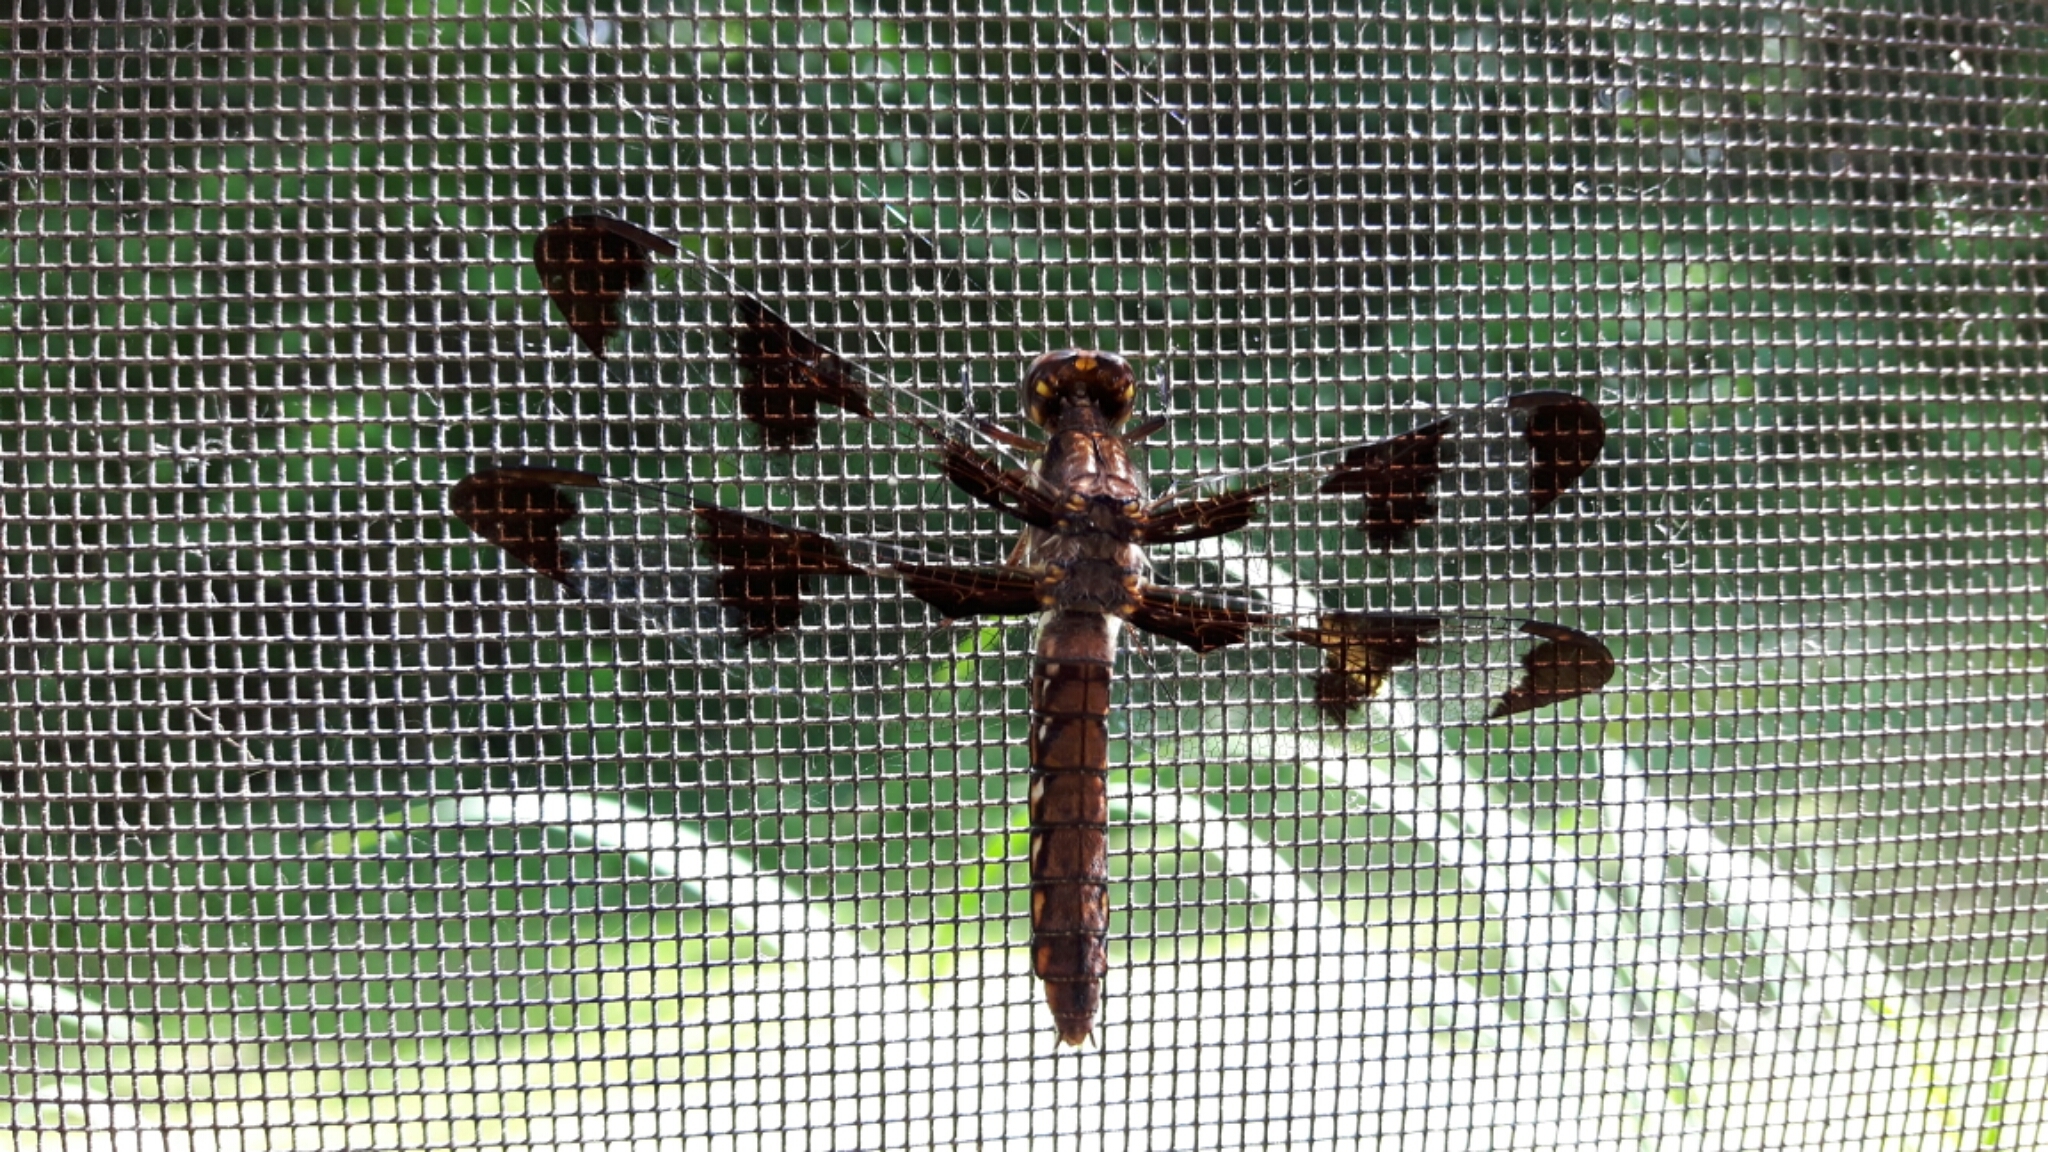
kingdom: Animalia
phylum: Arthropoda
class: Insecta
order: Odonata
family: Libellulidae
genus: Plathemis
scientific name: Plathemis lydia
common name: Common whitetail
